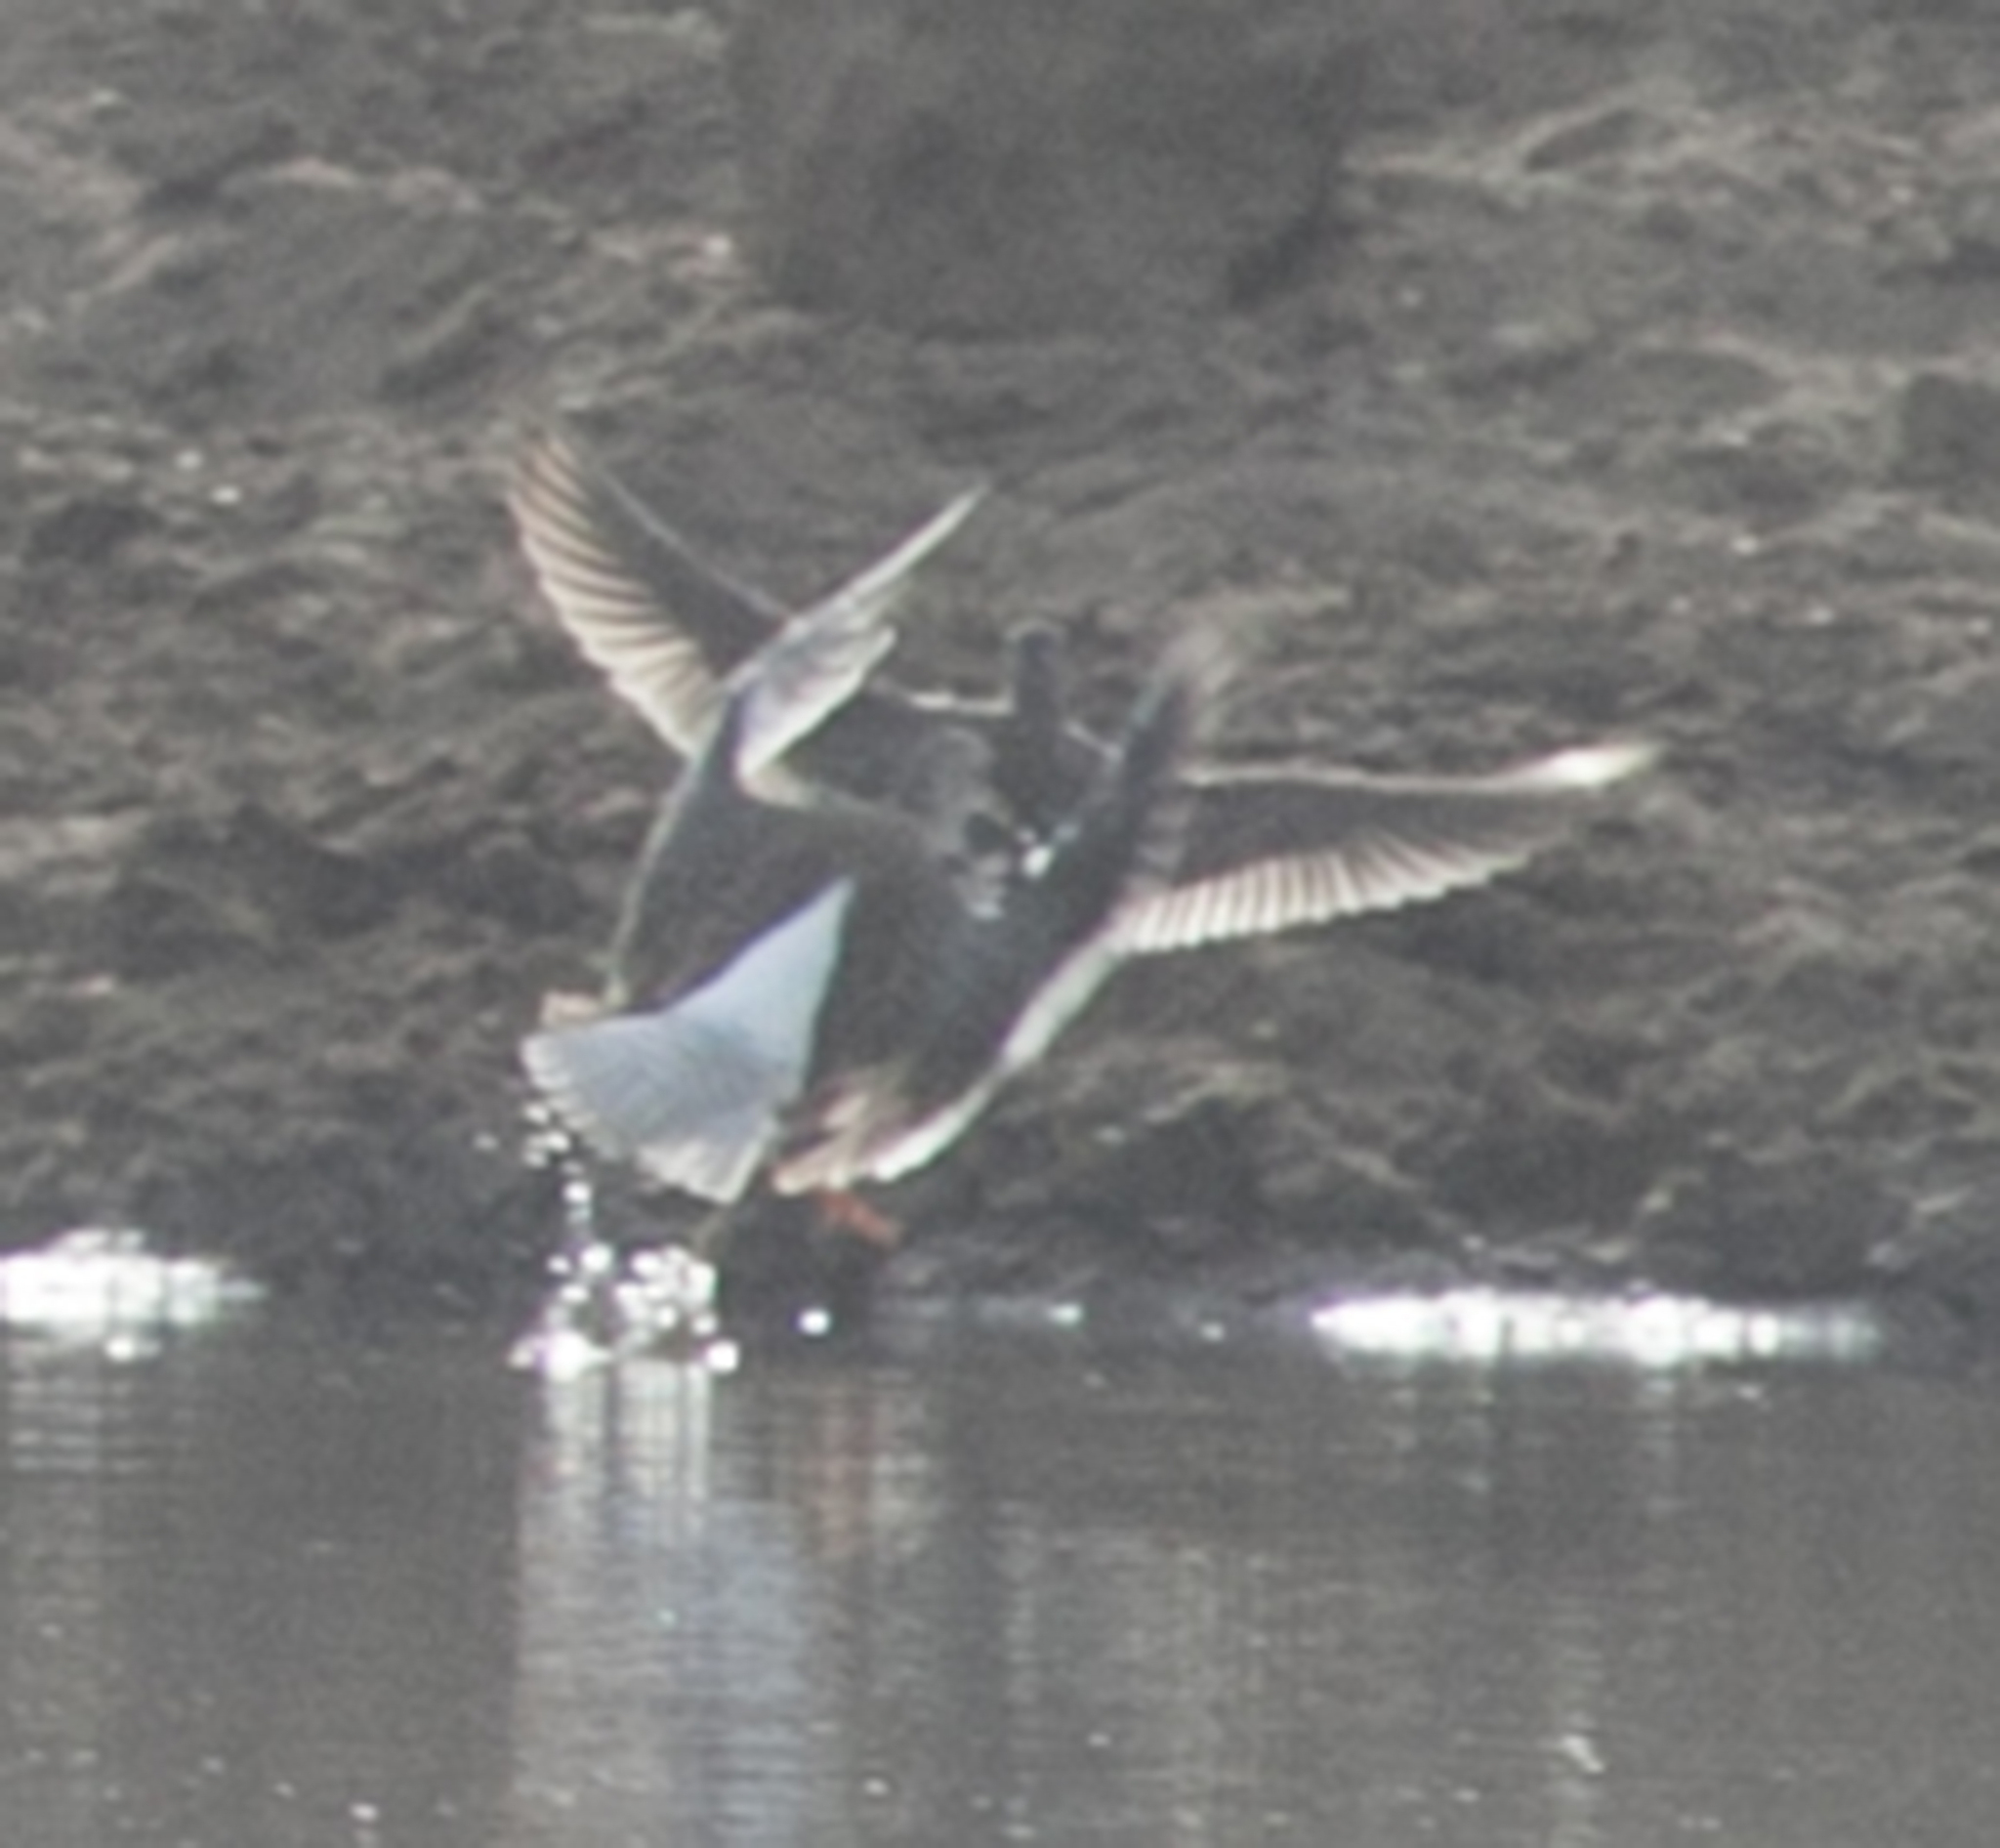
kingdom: Animalia
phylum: Chordata
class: Aves
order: Charadriiformes
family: Scolopacidae
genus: Tringa
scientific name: Tringa totanus
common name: Common redshank
